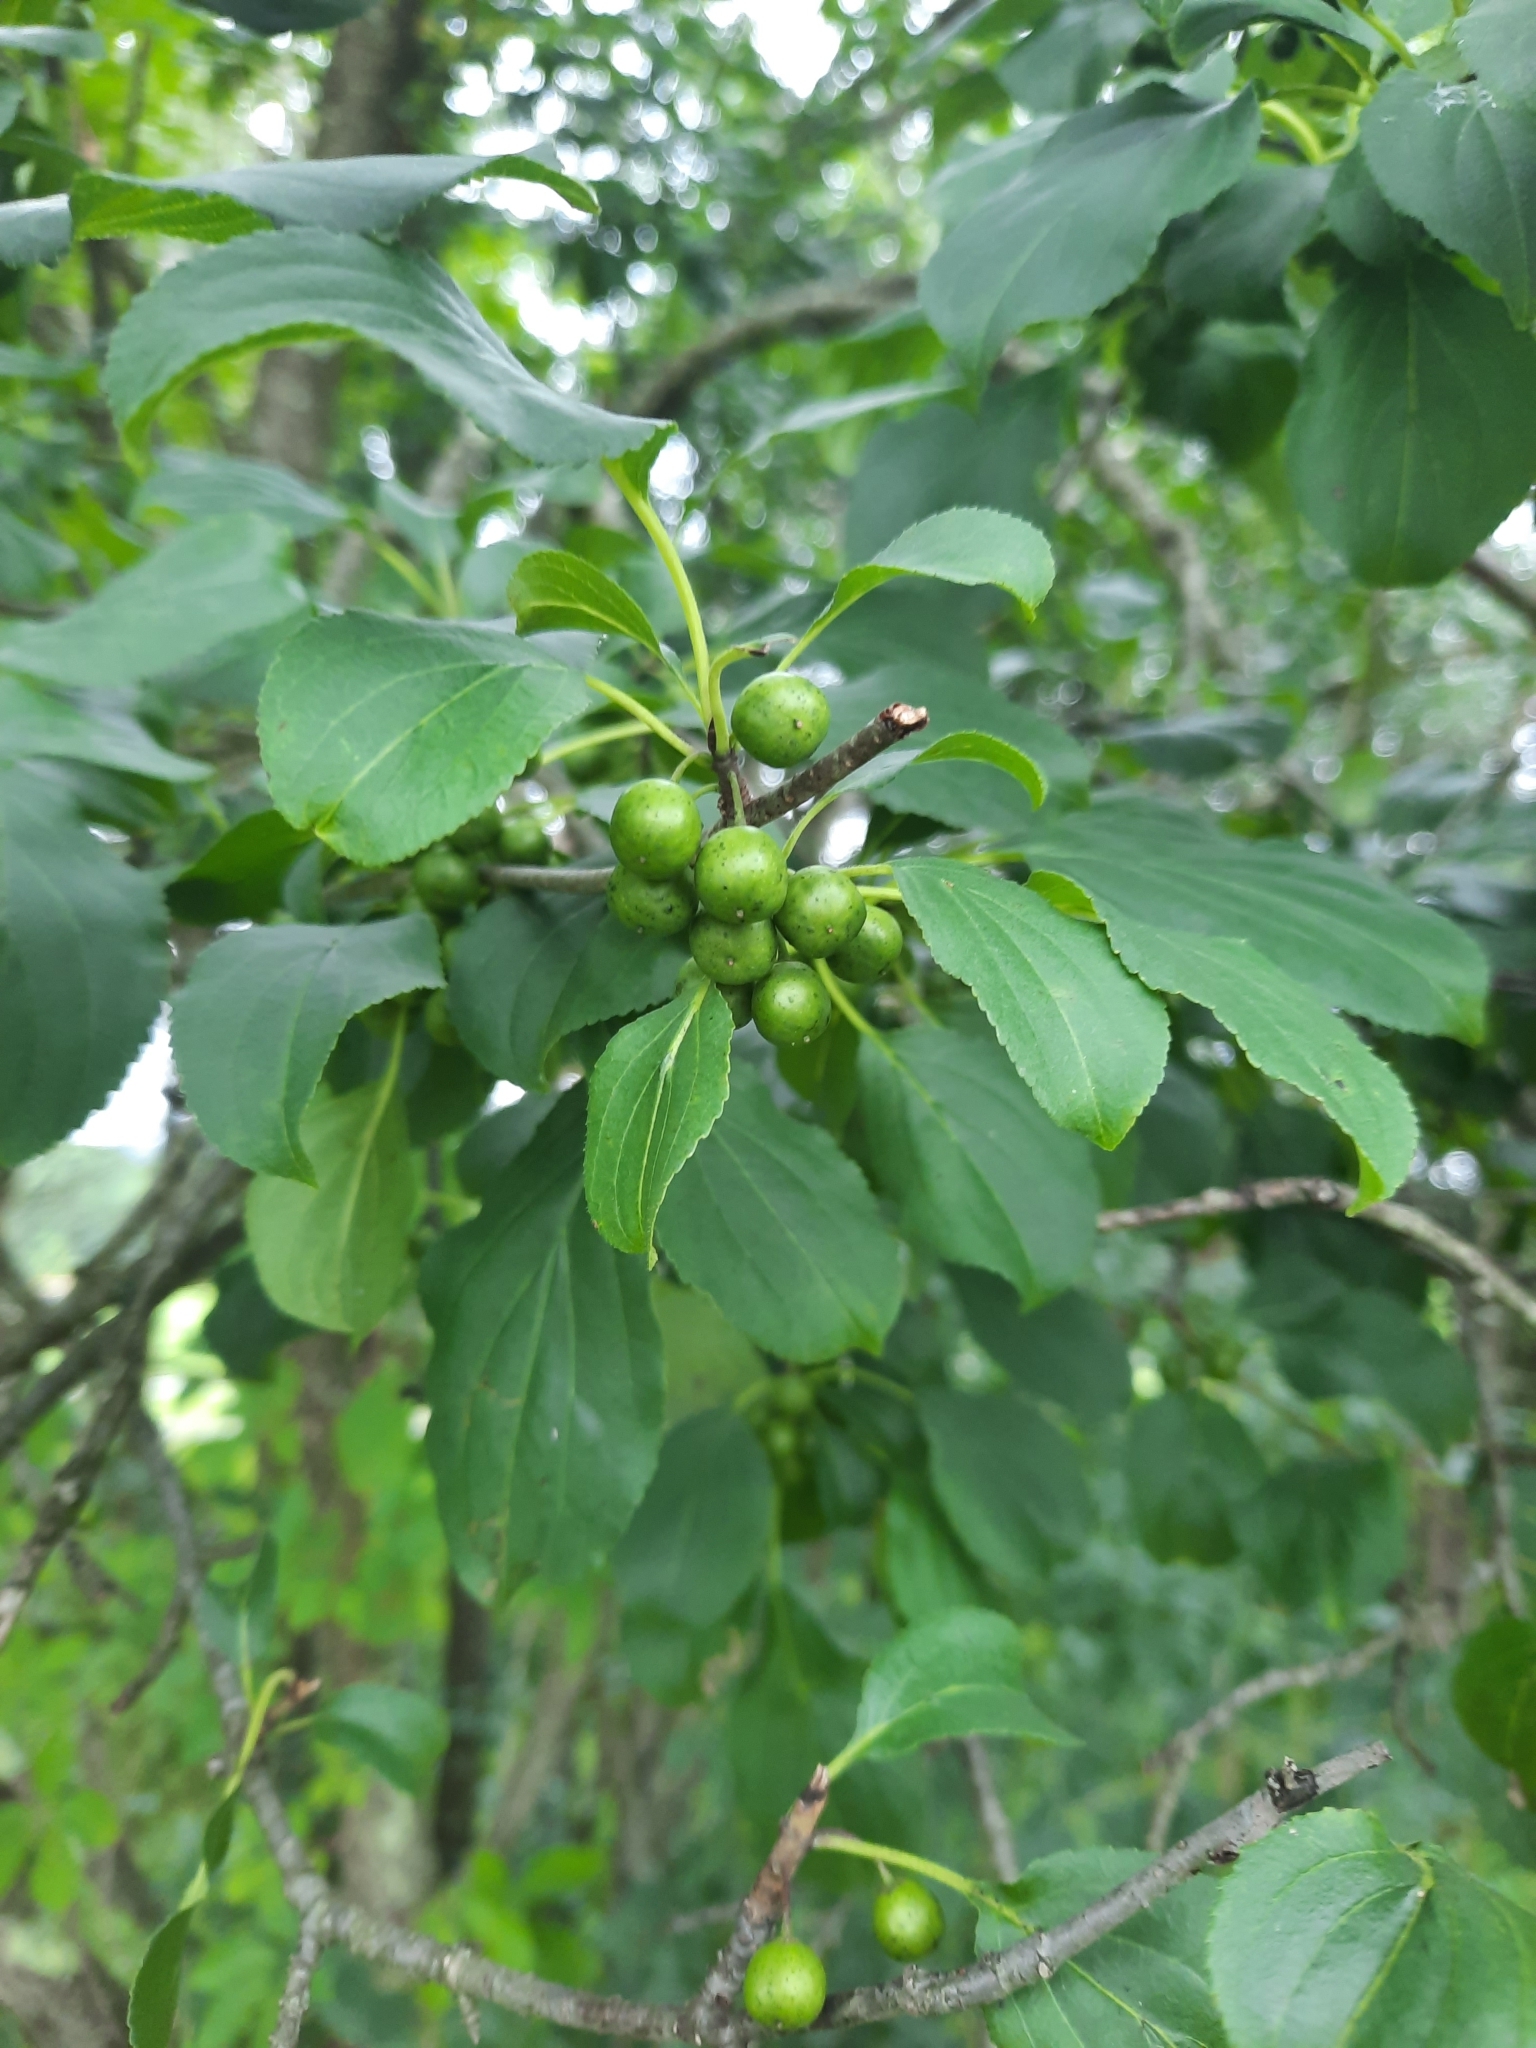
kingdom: Plantae
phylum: Tracheophyta
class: Magnoliopsida
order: Rosales
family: Rhamnaceae
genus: Rhamnus
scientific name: Rhamnus cathartica
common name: Common buckthorn
